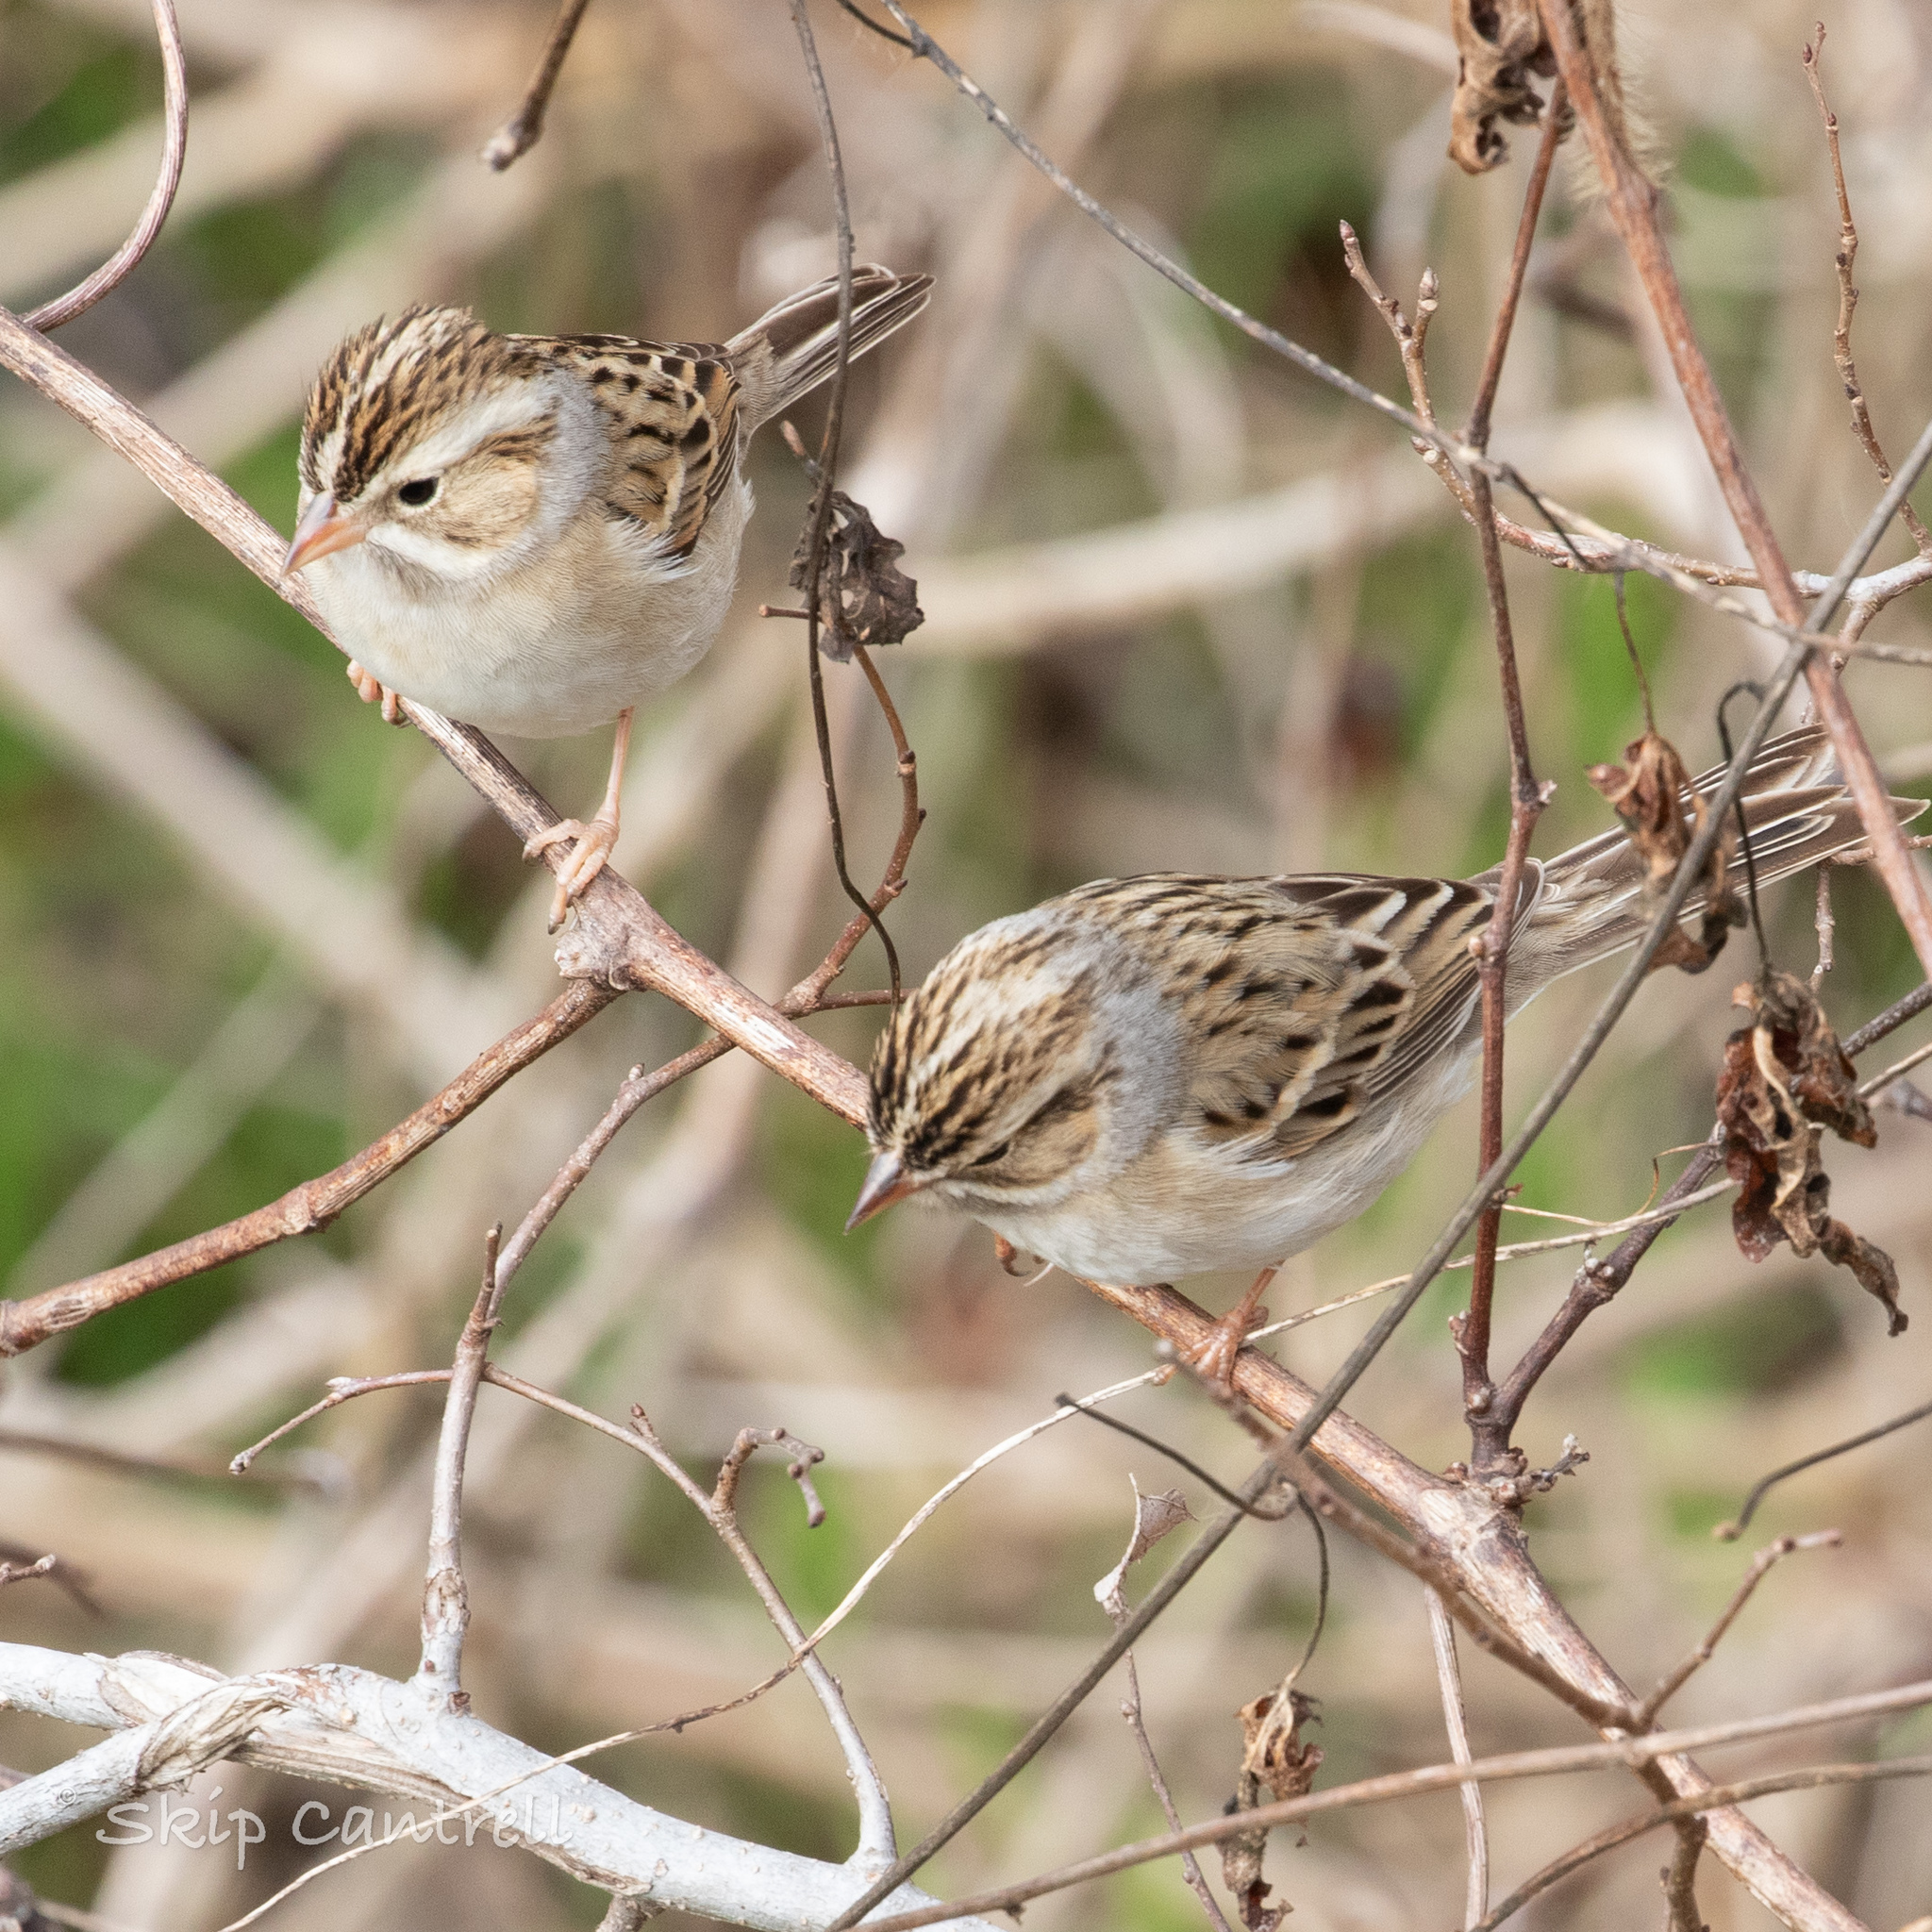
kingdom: Animalia
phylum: Chordata
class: Aves
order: Passeriformes
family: Passerellidae
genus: Spizella
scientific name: Spizella pallida
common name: Clay-colored sparrow
